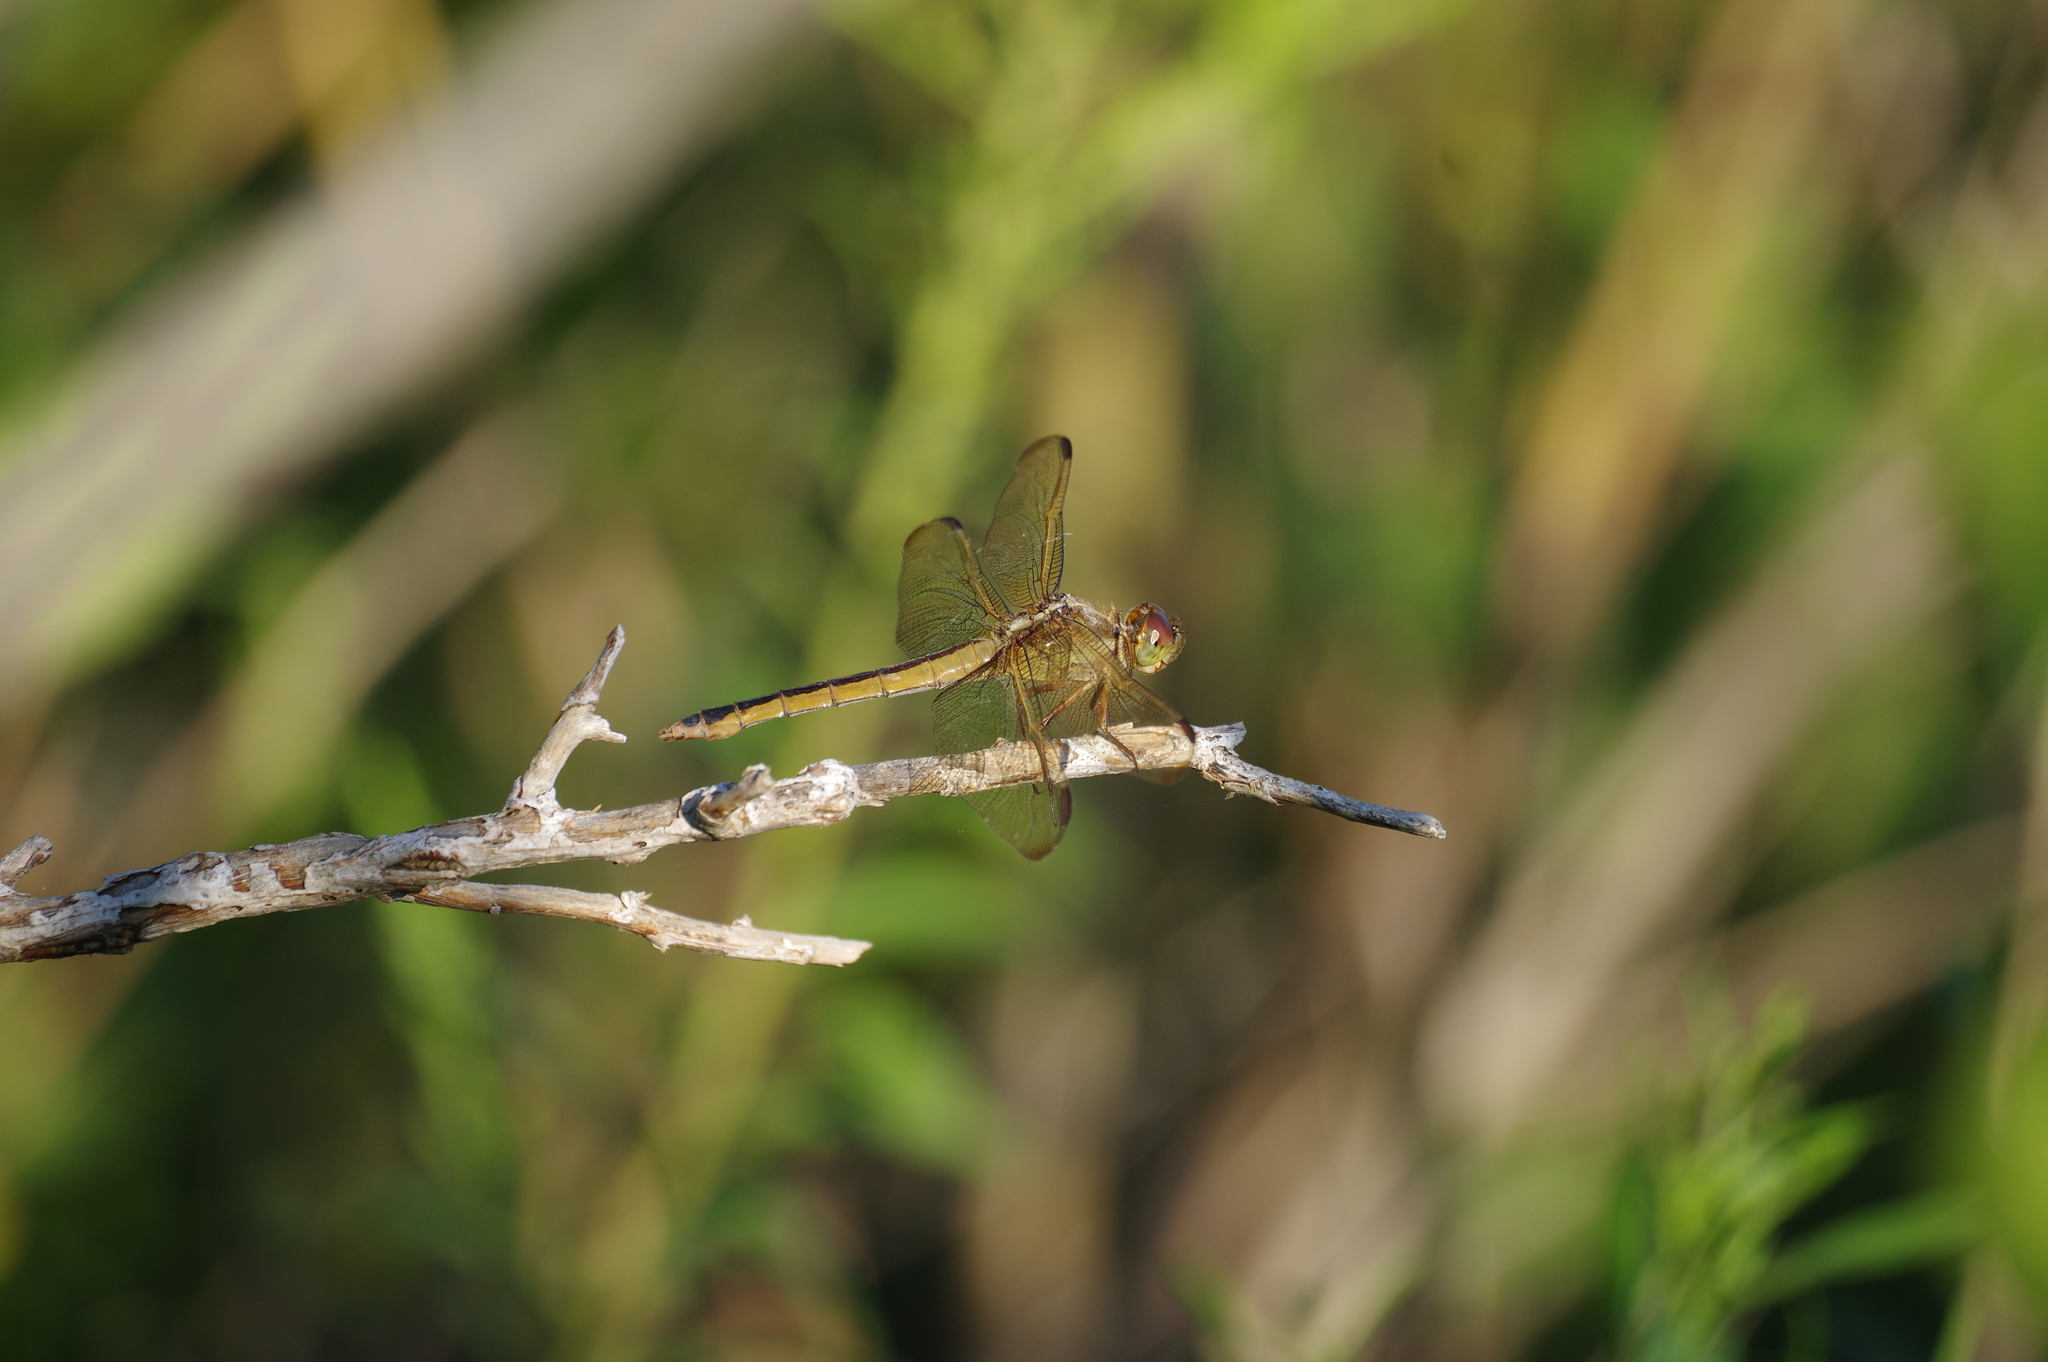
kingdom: Animalia
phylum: Arthropoda
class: Insecta
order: Odonata
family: Libellulidae
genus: Libellula
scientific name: Libellula needhami
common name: Needham's skimmer
